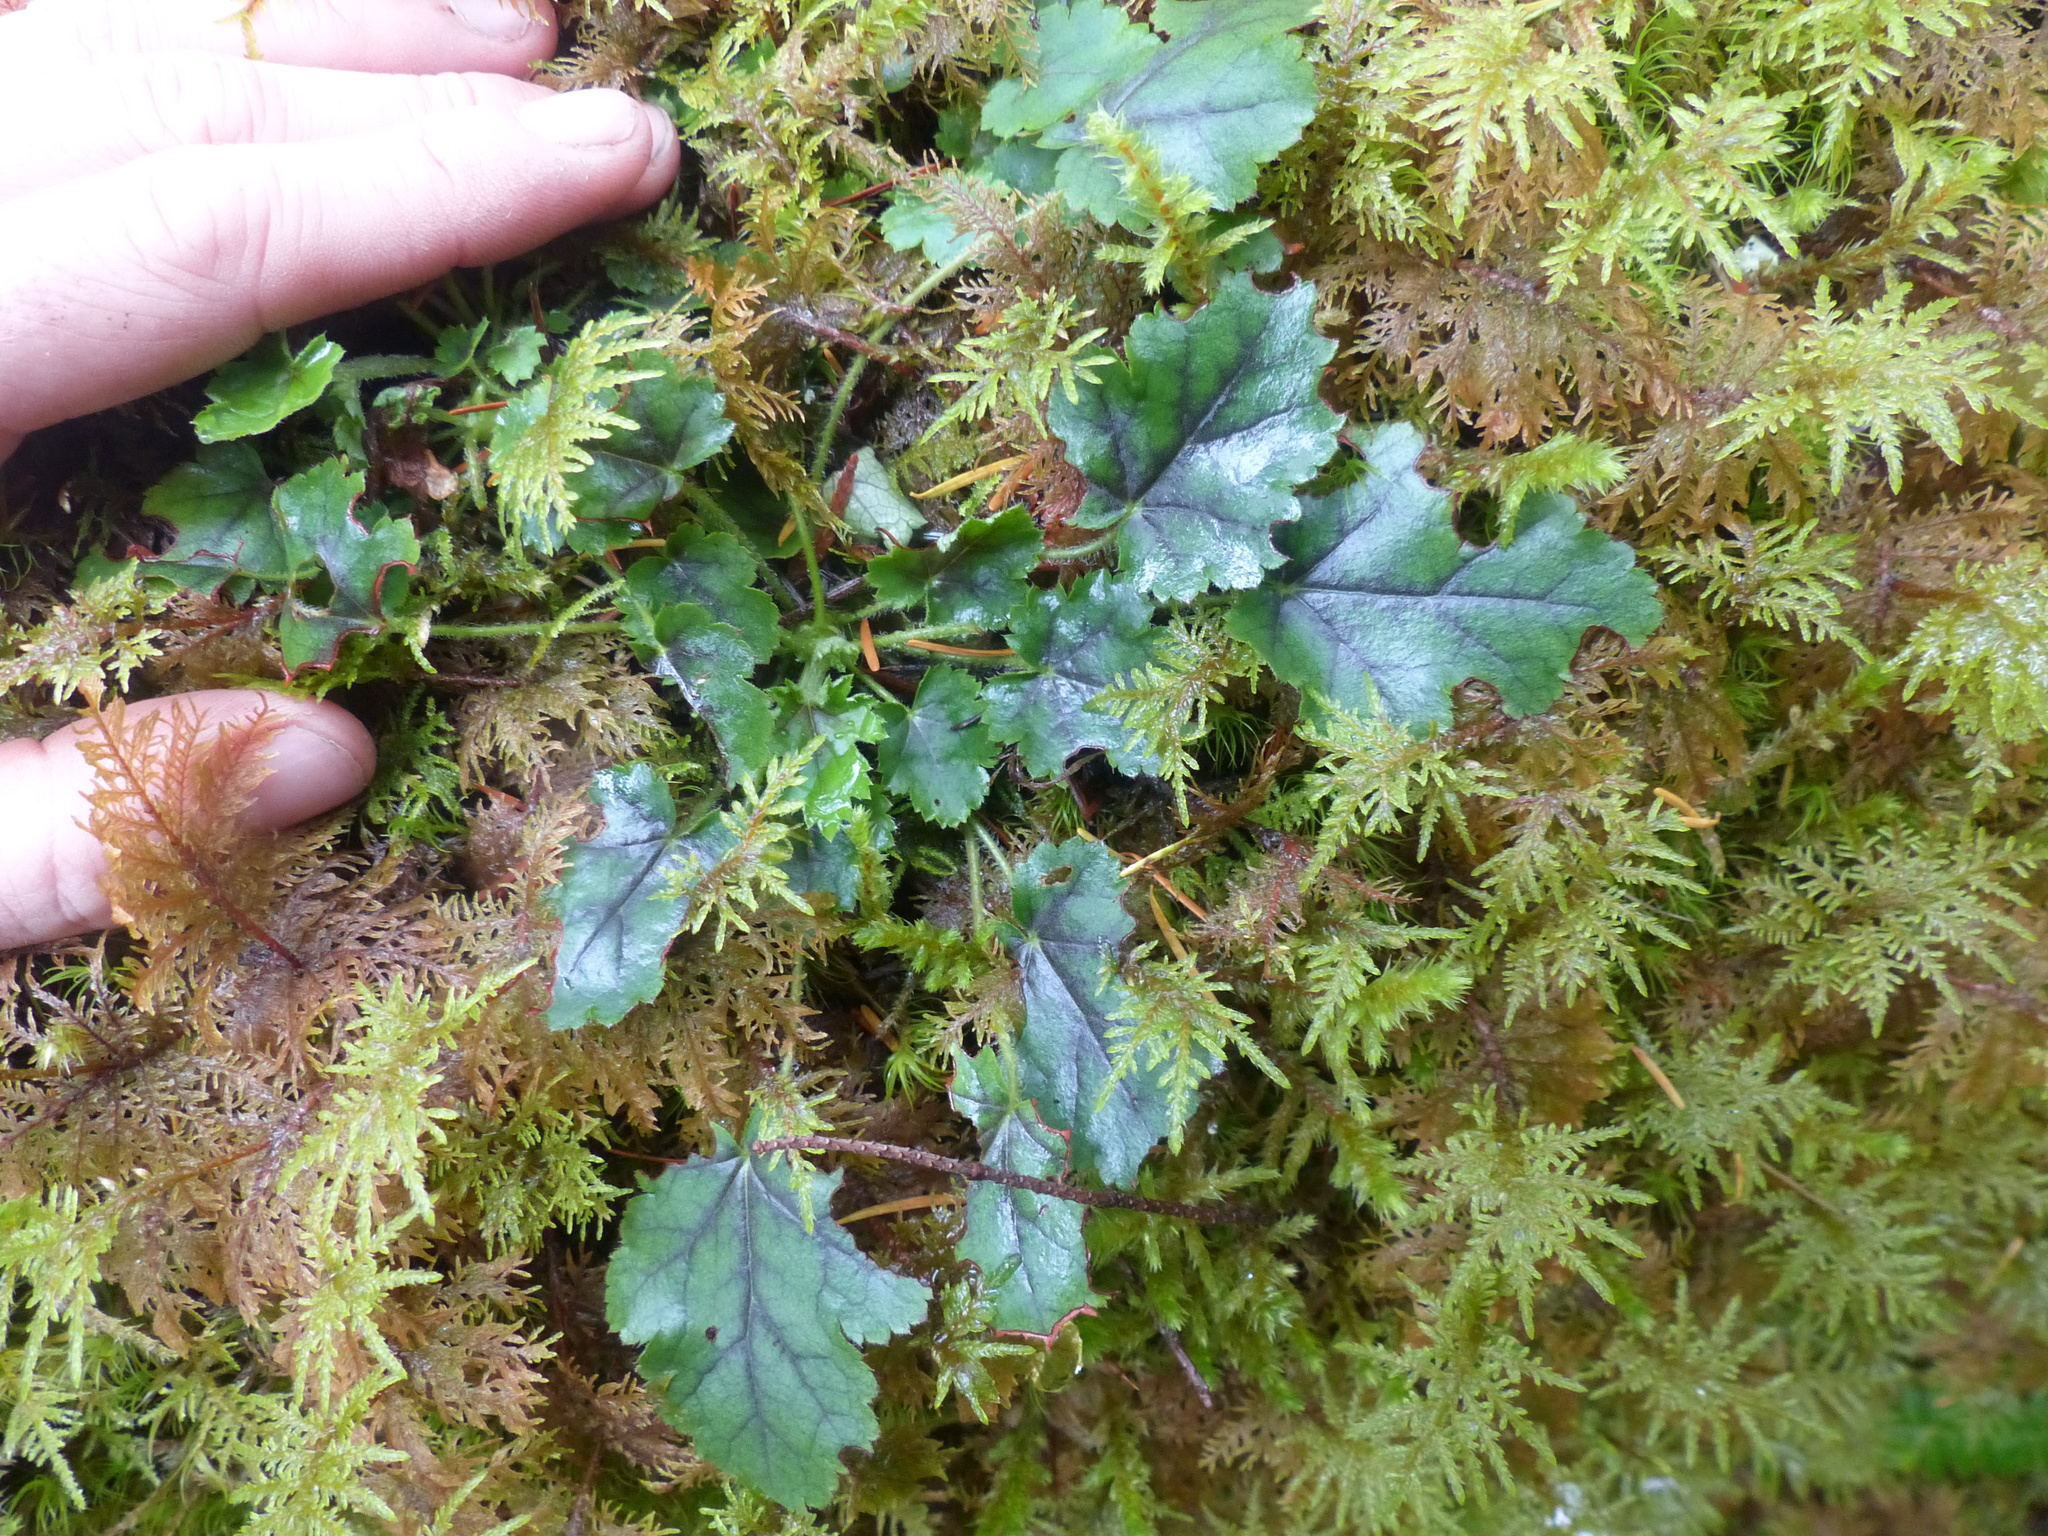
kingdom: Plantae
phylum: Tracheophyta
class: Magnoliopsida
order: Saxifragales
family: Saxifragaceae
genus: Heuchera
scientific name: Heuchera micrantha
